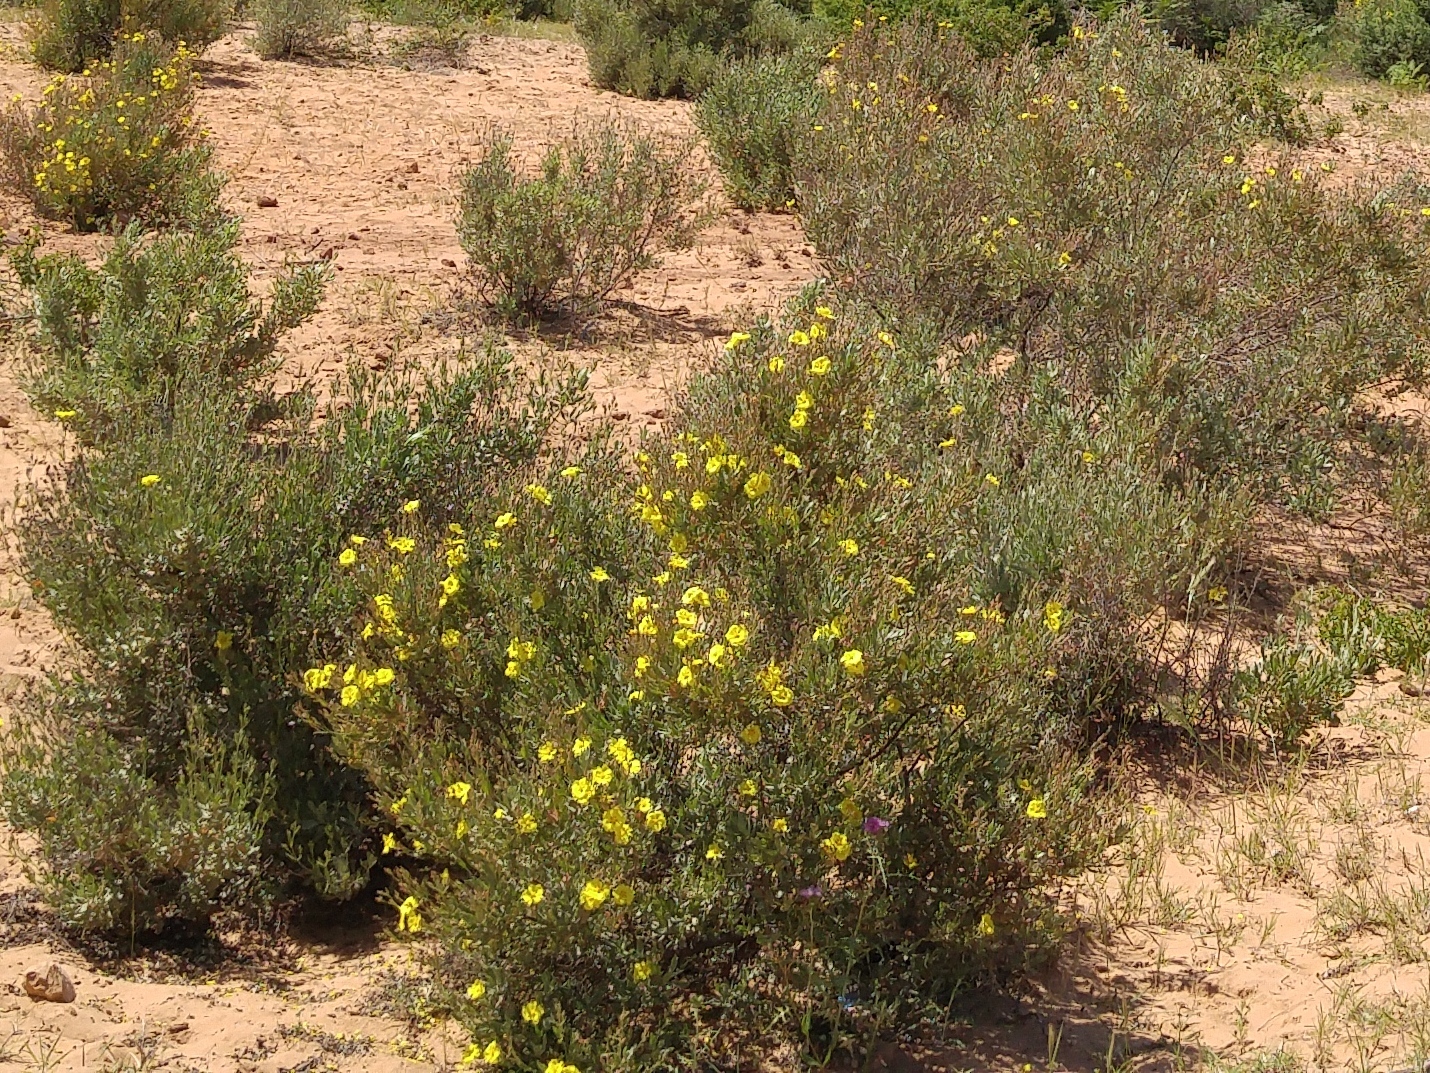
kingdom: Plantae
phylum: Tracheophyta
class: Magnoliopsida
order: Malvales
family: Cistaceae
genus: Halimium
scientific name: Halimium halimifolium
